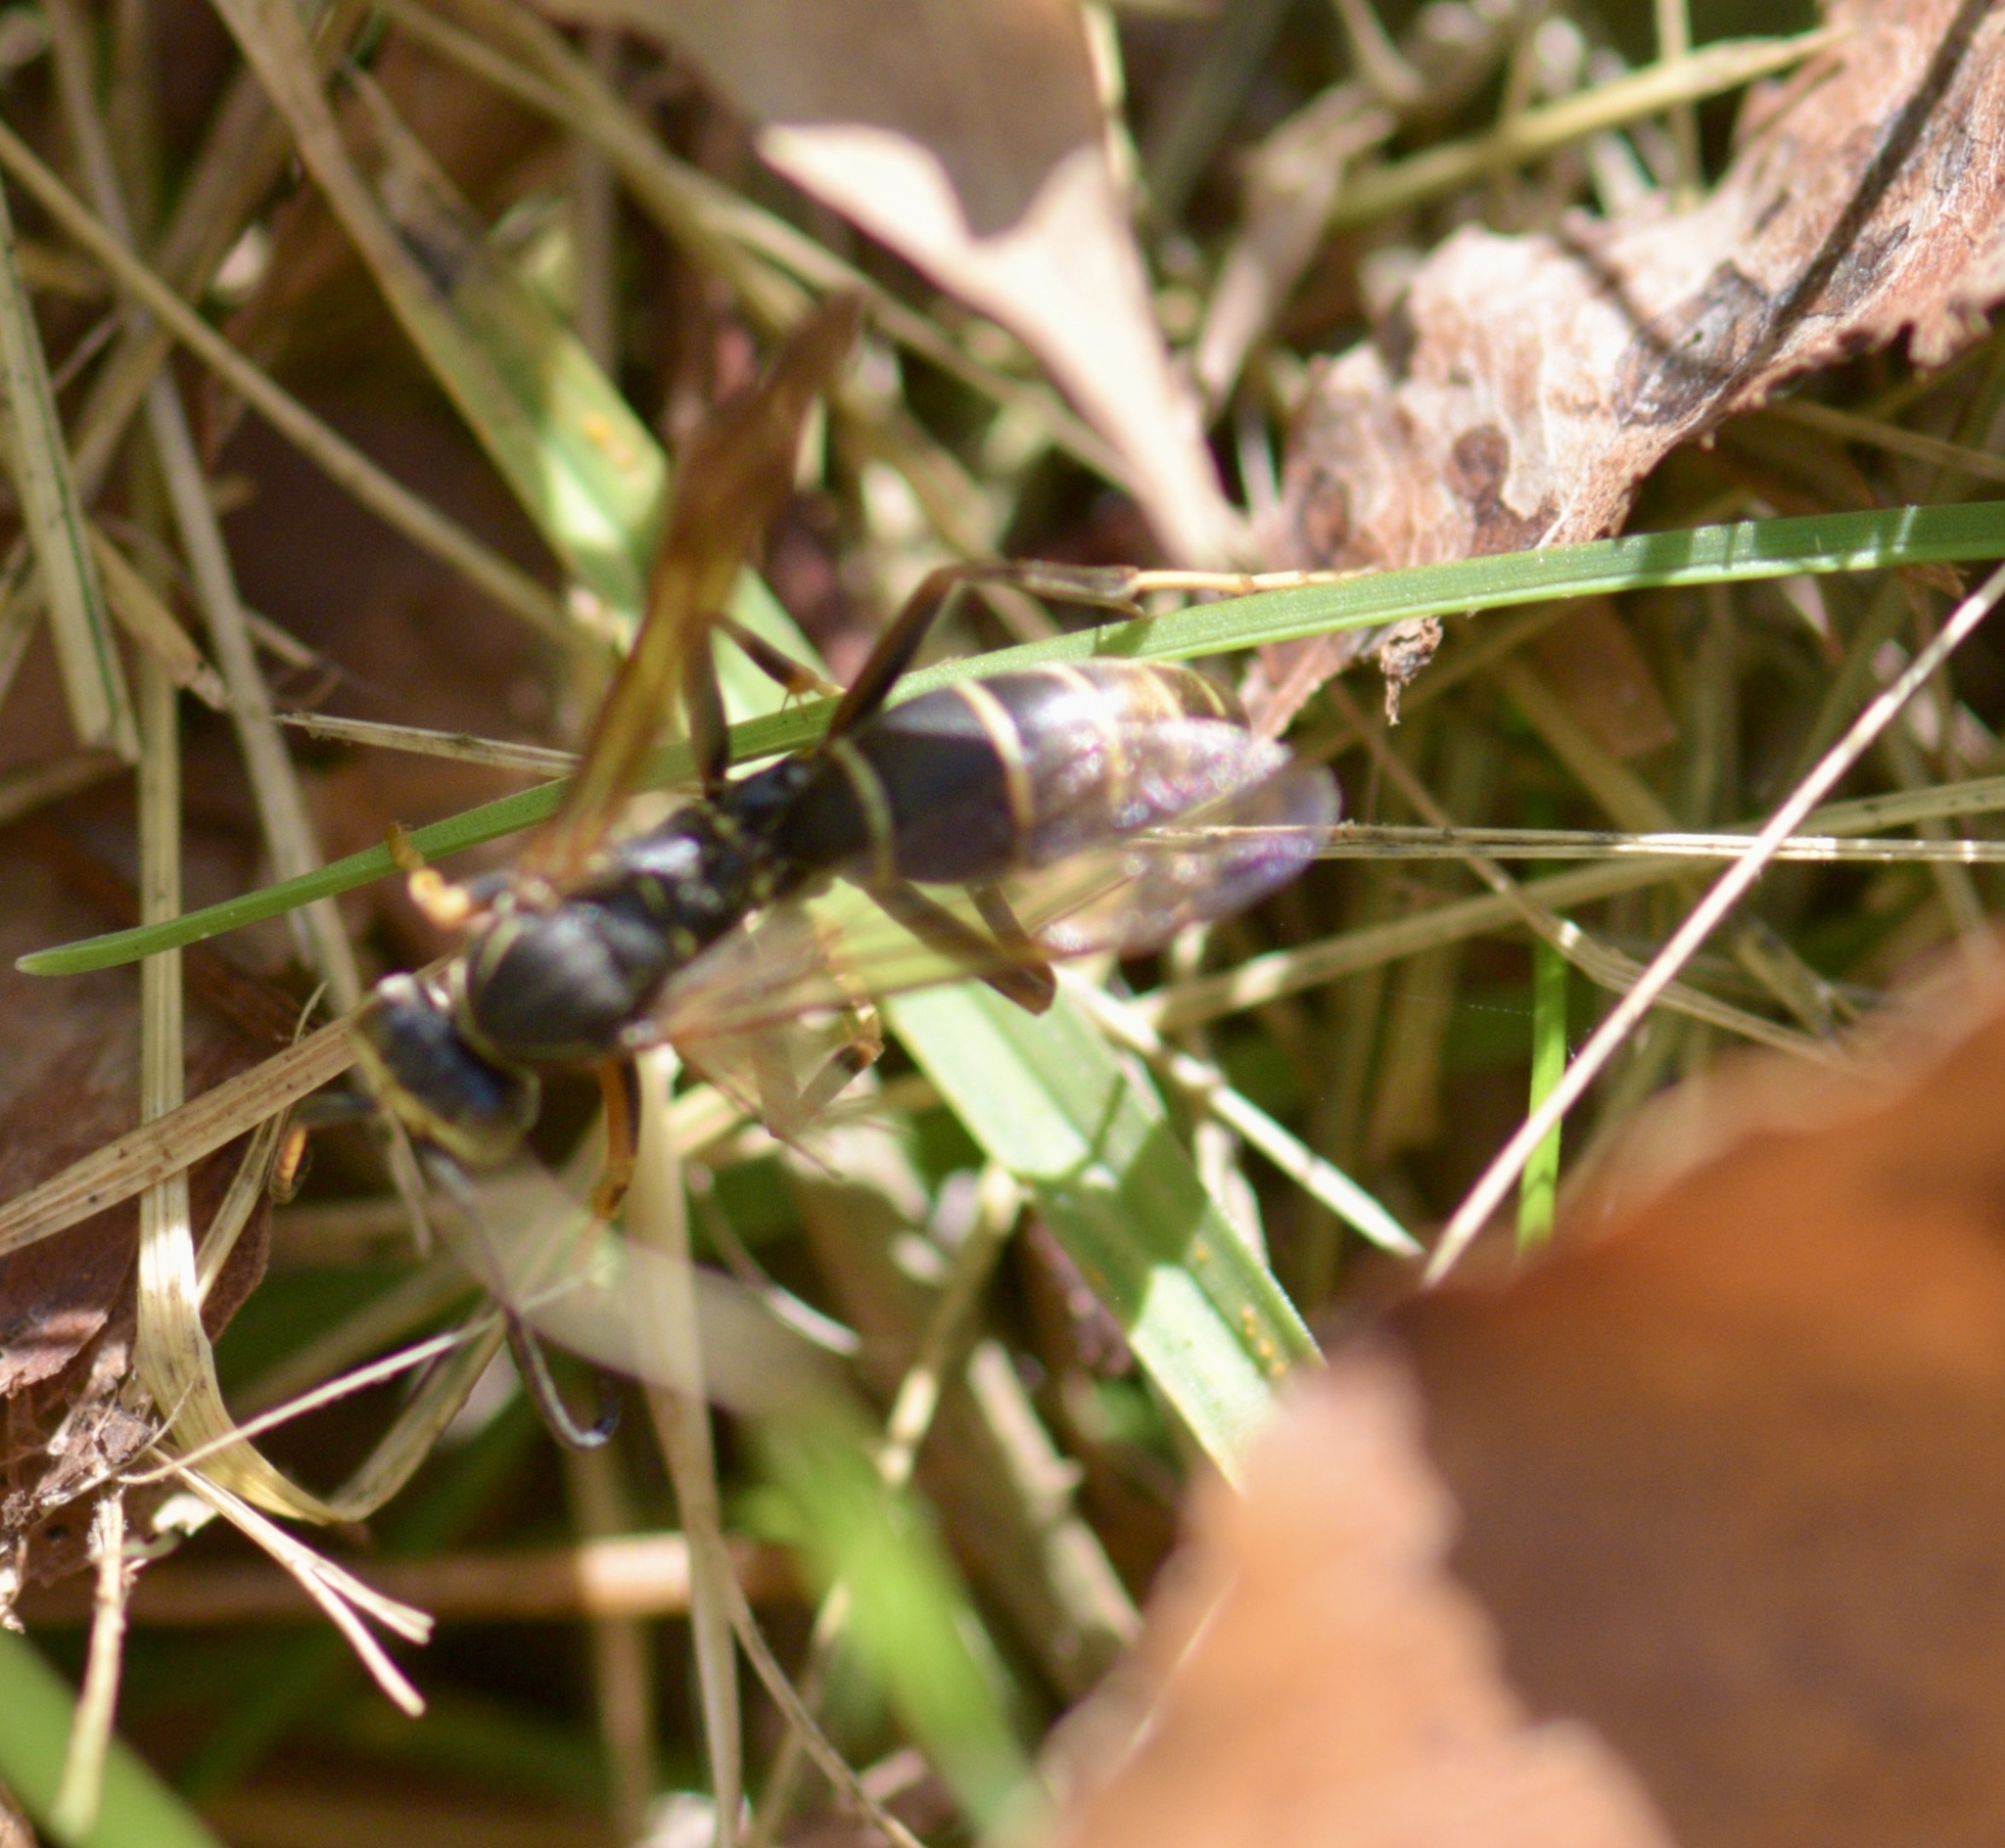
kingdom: Animalia
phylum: Arthropoda
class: Insecta
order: Hymenoptera
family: Eumenidae
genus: Polistes
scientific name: Polistes fuscatus
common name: Dark paper wasp
